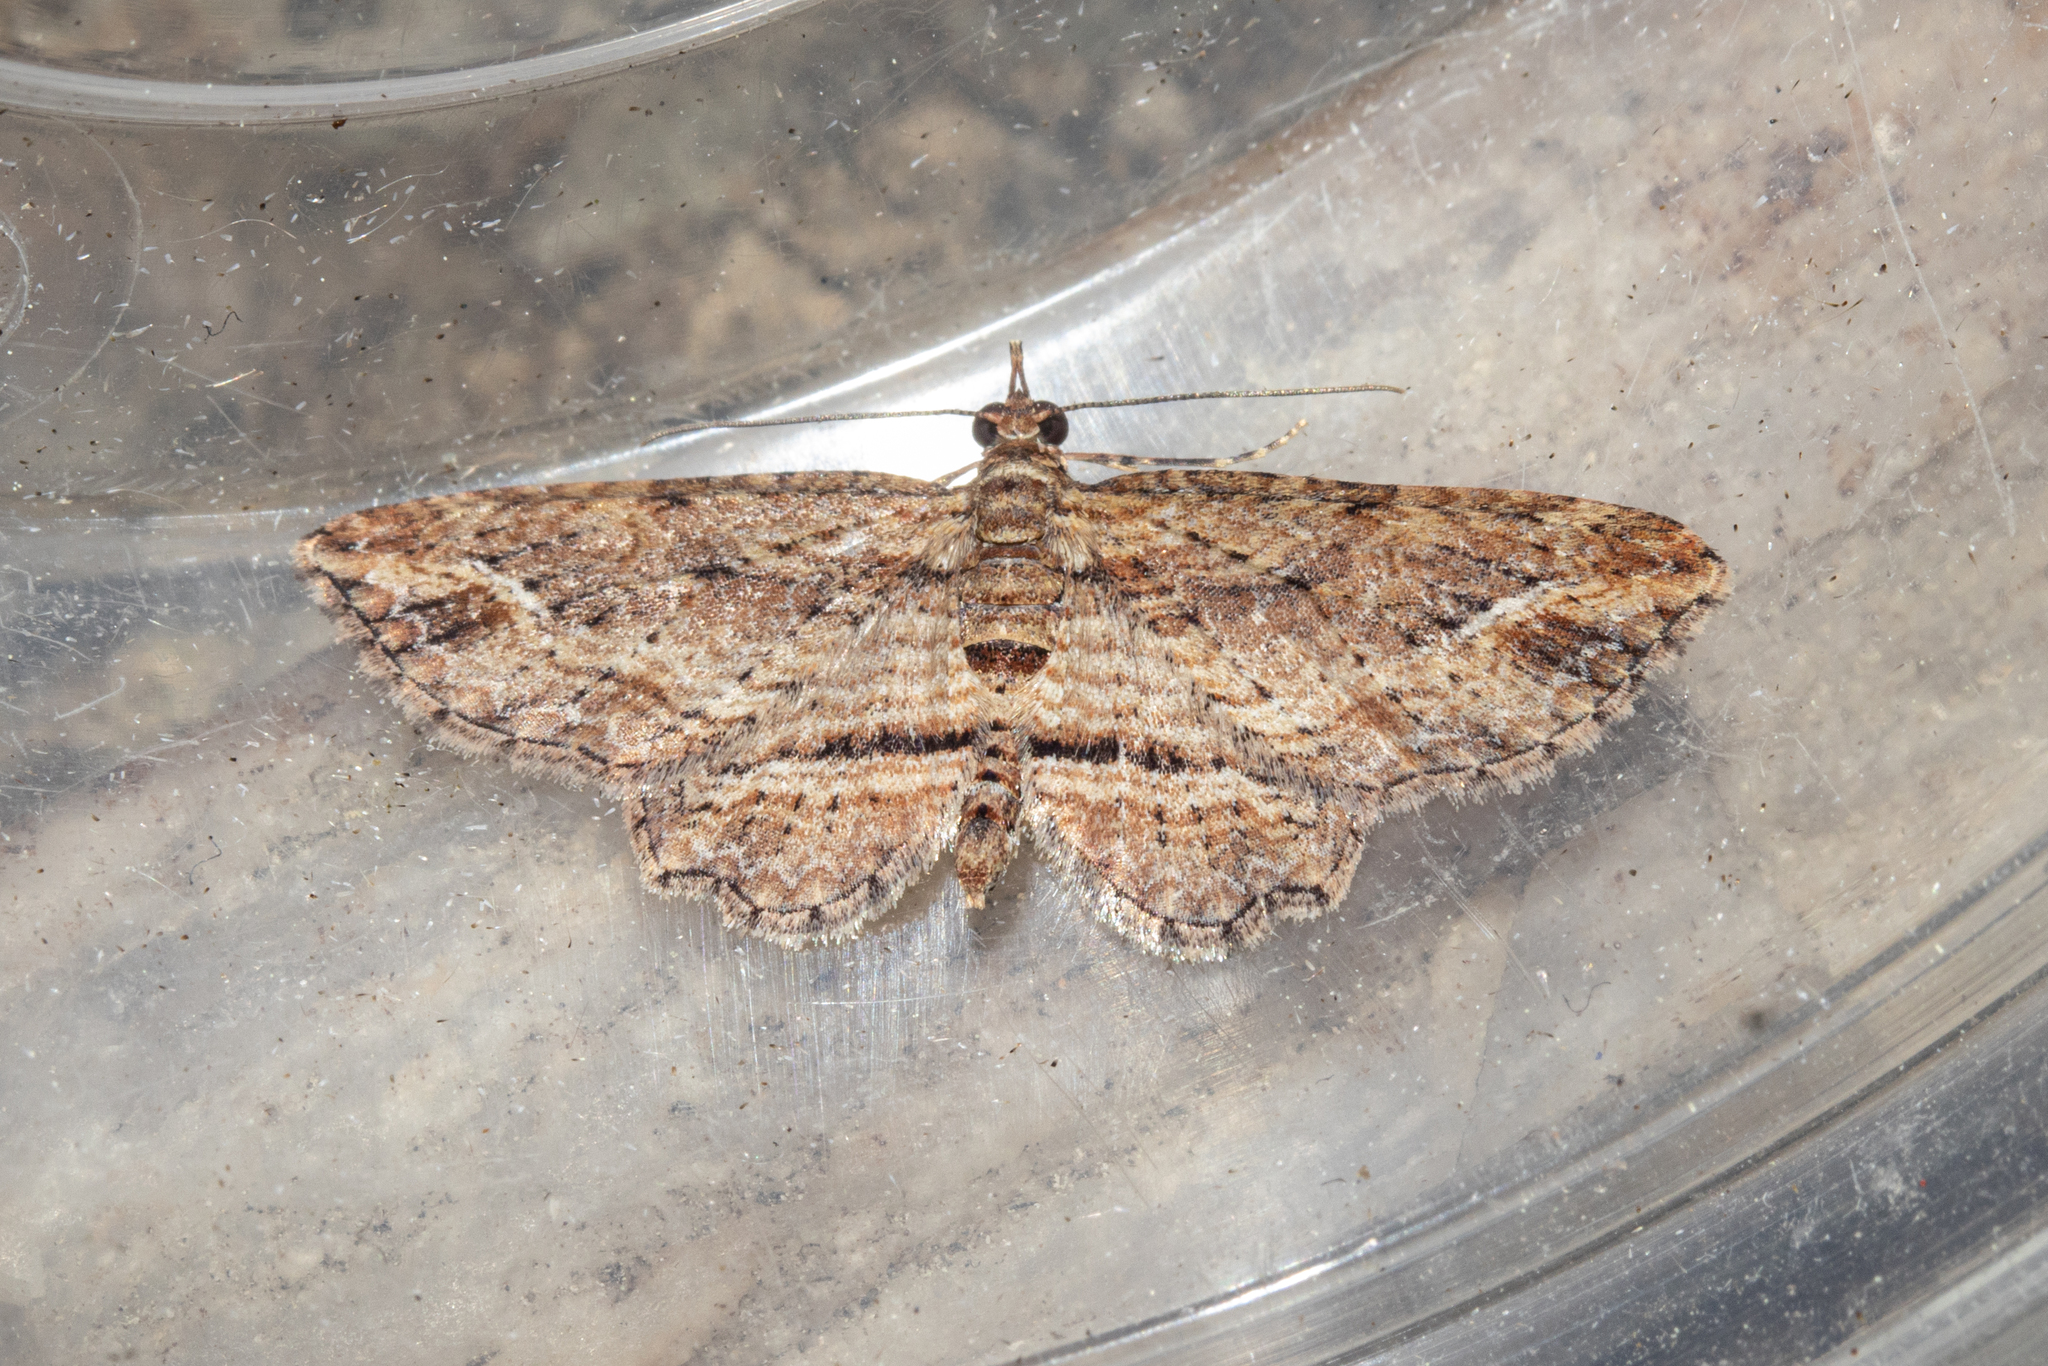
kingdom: Animalia
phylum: Arthropoda
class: Insecta
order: Lepidoptera
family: Geometridae
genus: Chloroclystis
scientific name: Chloroclystis filata
